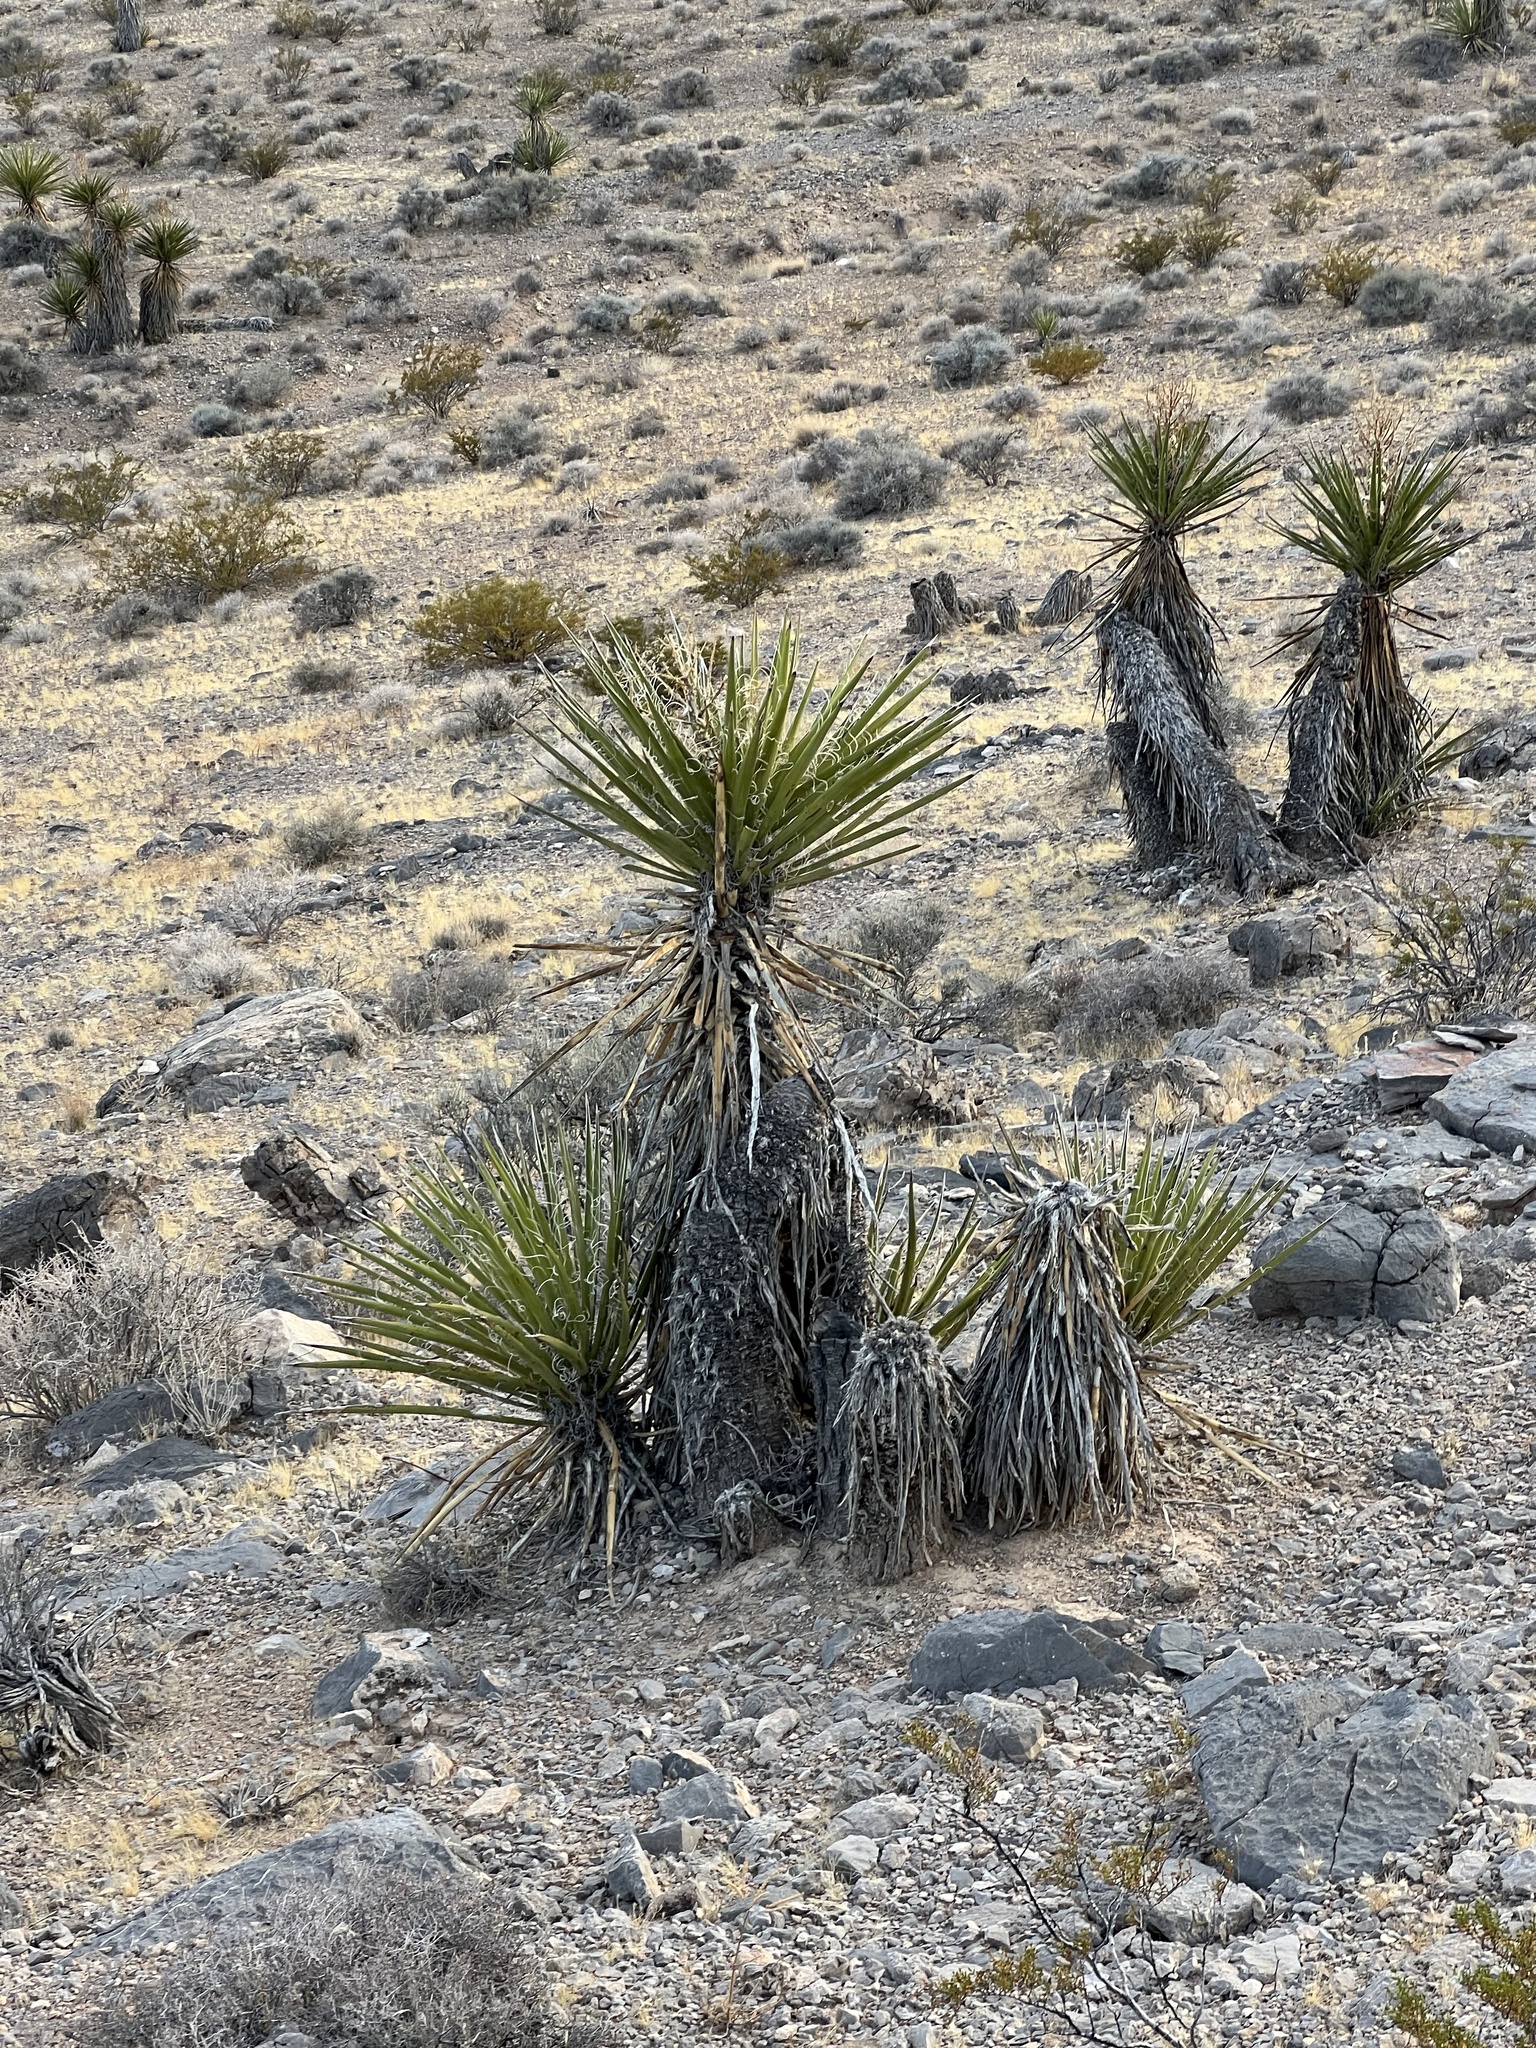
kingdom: Plantae
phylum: Tracheophyta
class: Liliopsida
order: Asparagales
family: Asparagaceae
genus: Yucca
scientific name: Yucca schidigera
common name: Mojave yucca
